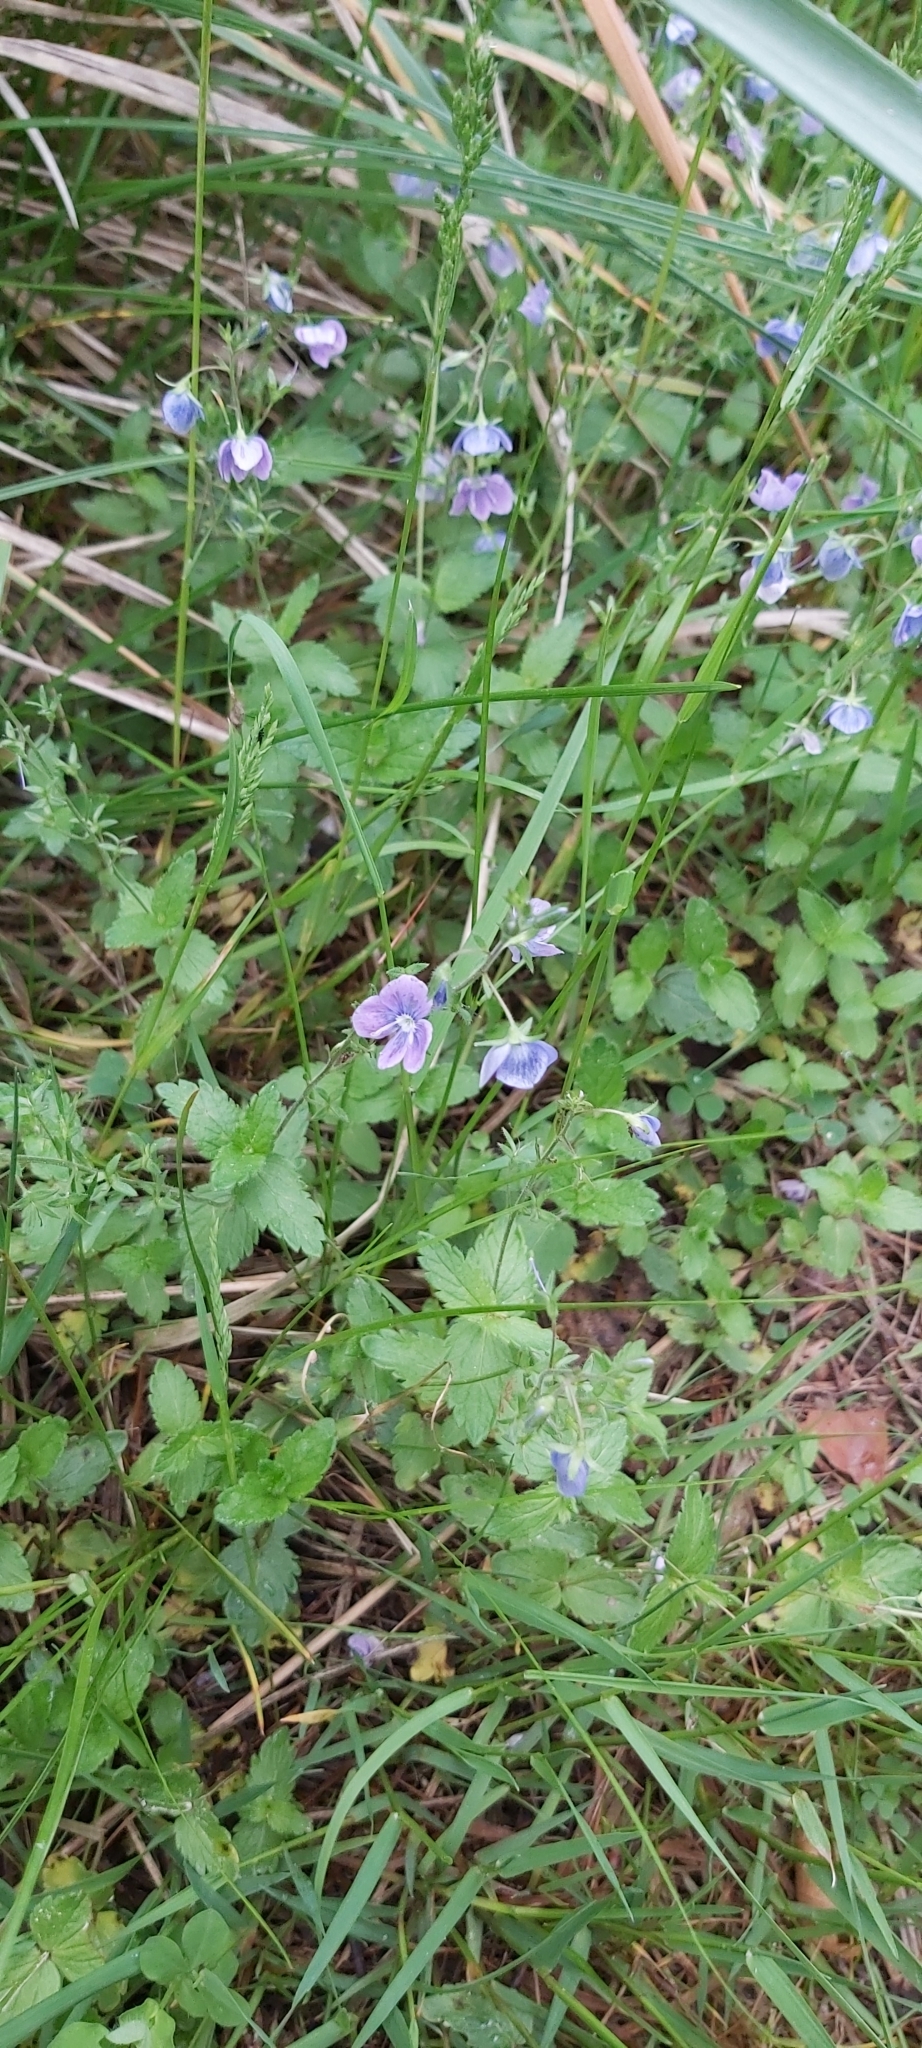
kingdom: Plantae
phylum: Tracheophyta
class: Magnoliopsida
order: Lamiales
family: Plantaginaceae
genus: Veronica
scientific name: Veronica chamaedrys
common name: Germander speedwell
